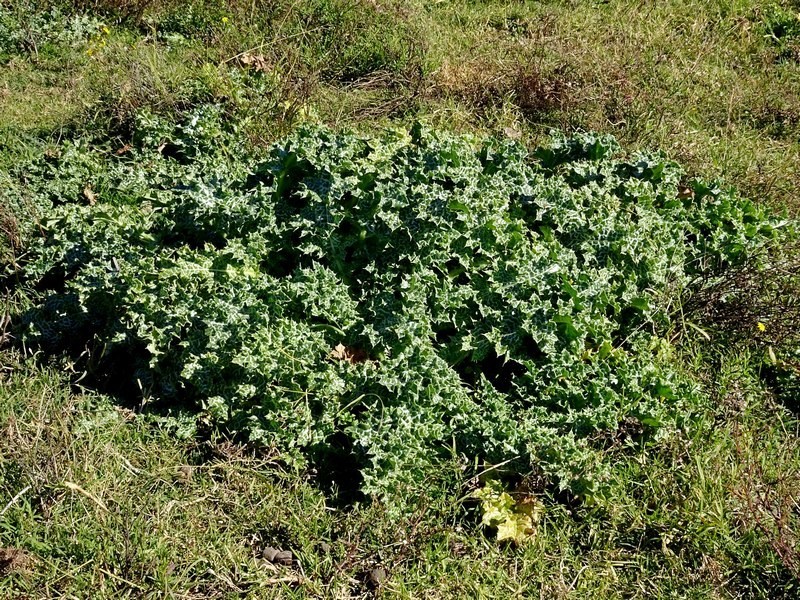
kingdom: Plantae
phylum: Tracheophyta
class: Magnoliopsida
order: Asterales
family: Asteraceae
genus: Silybum
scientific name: Silybum marianum
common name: Milk thistle
